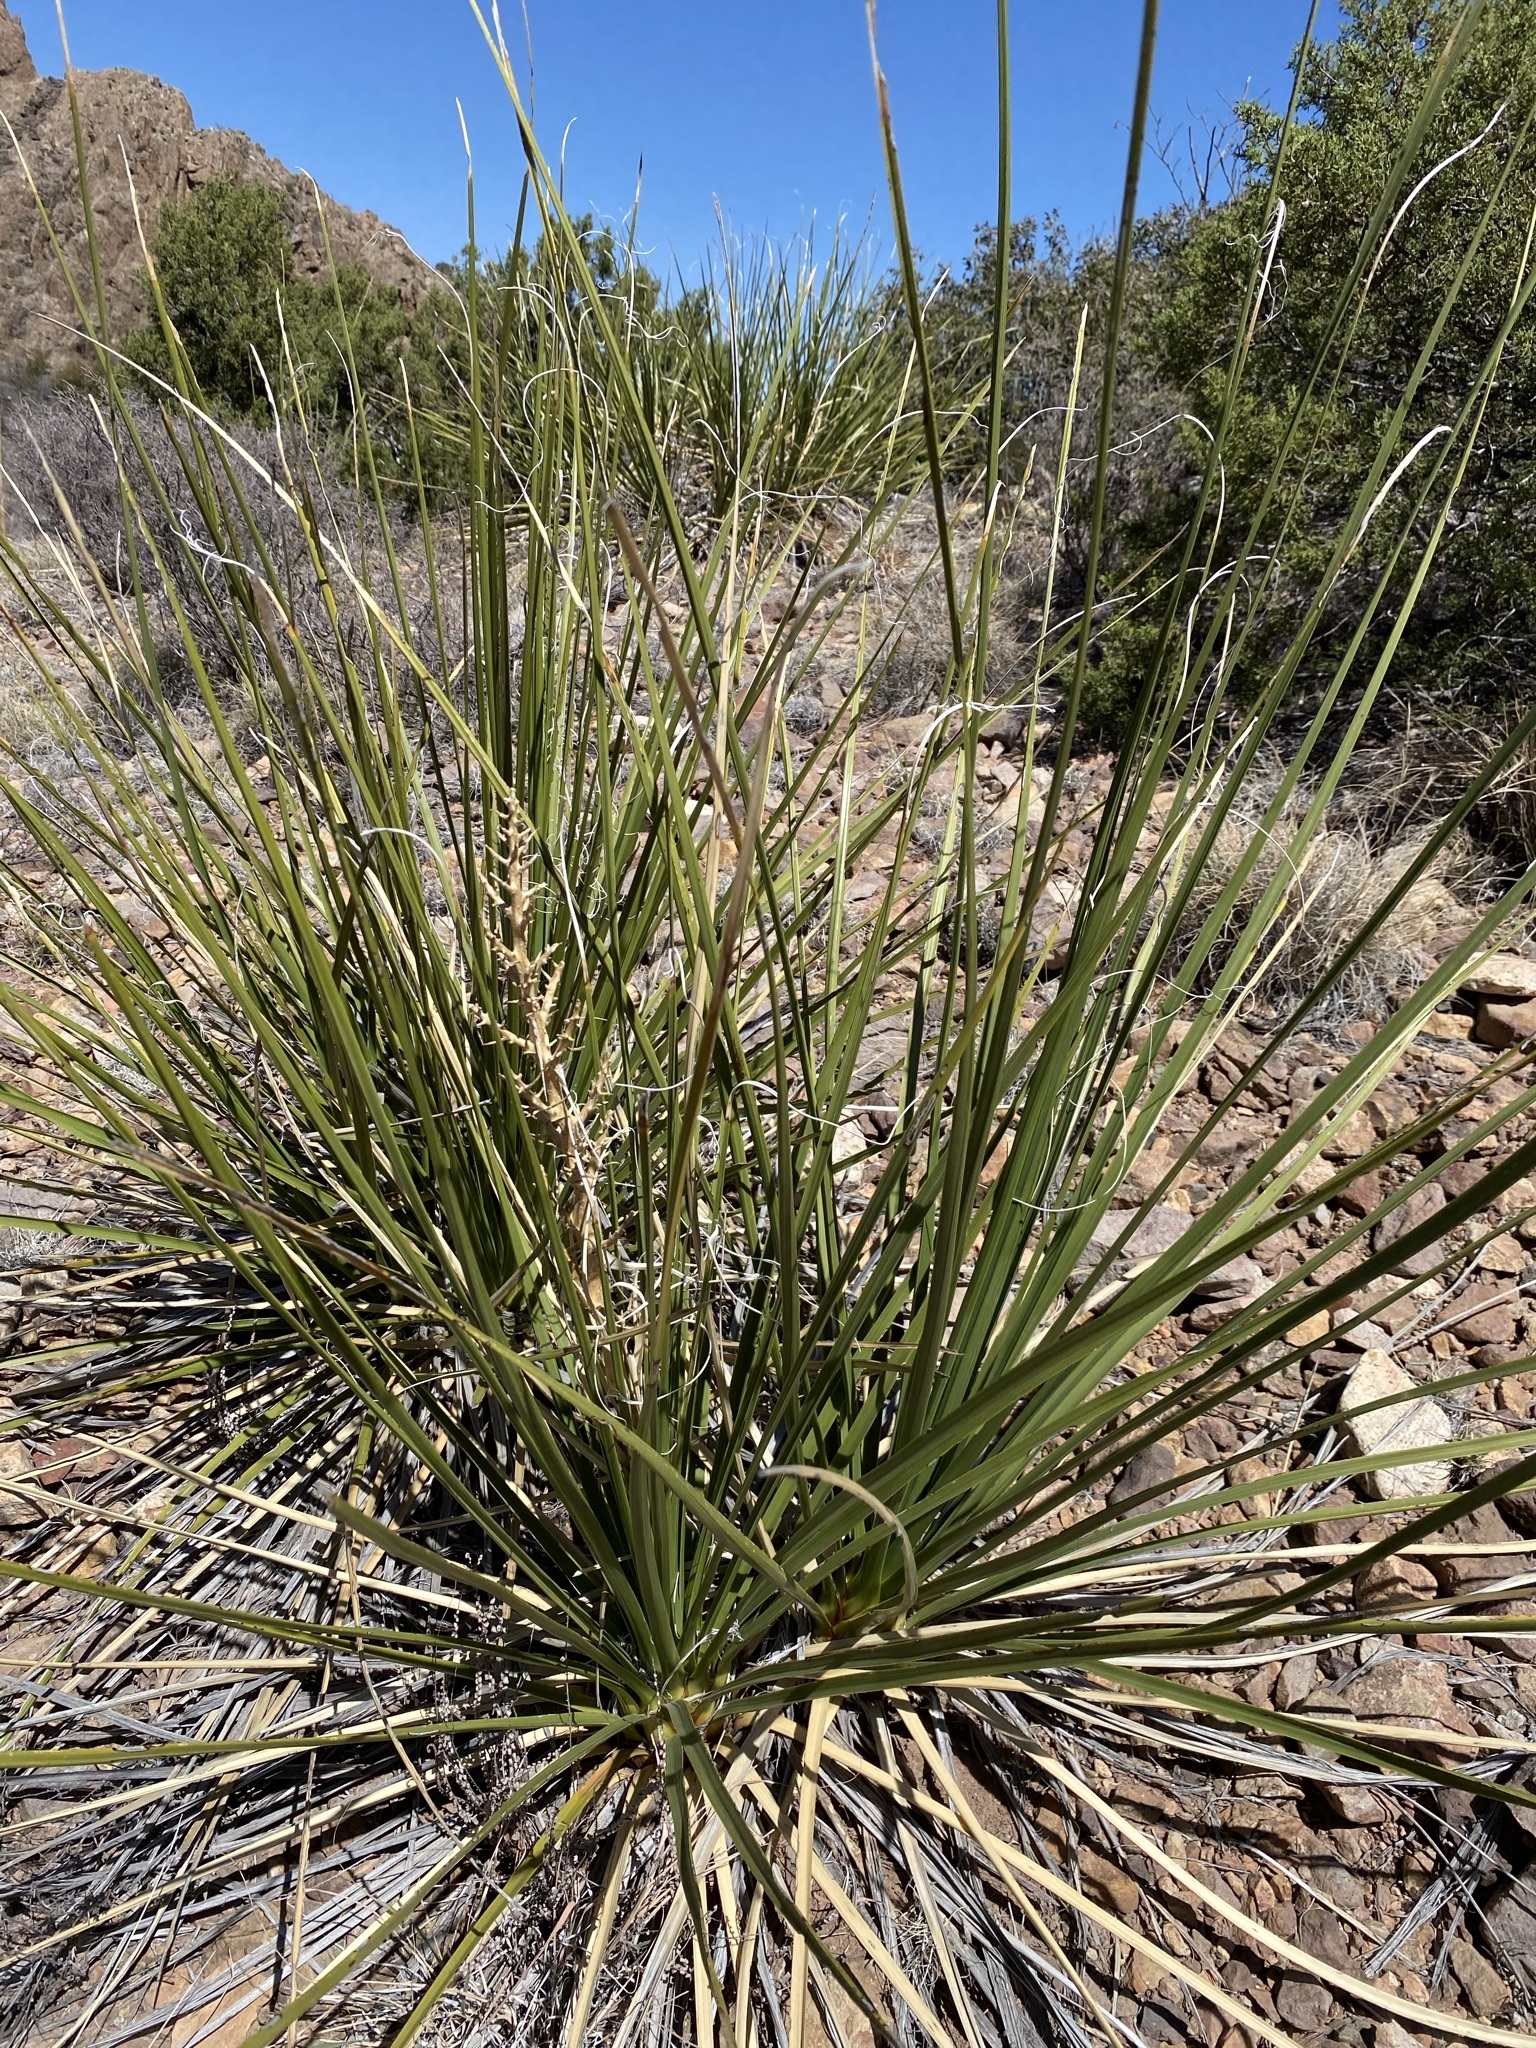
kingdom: Plantae
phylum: Tracheophyta
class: Liliopsida
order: Asparagales
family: Asparagaceae
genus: Nolina
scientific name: Nolina erumpens
